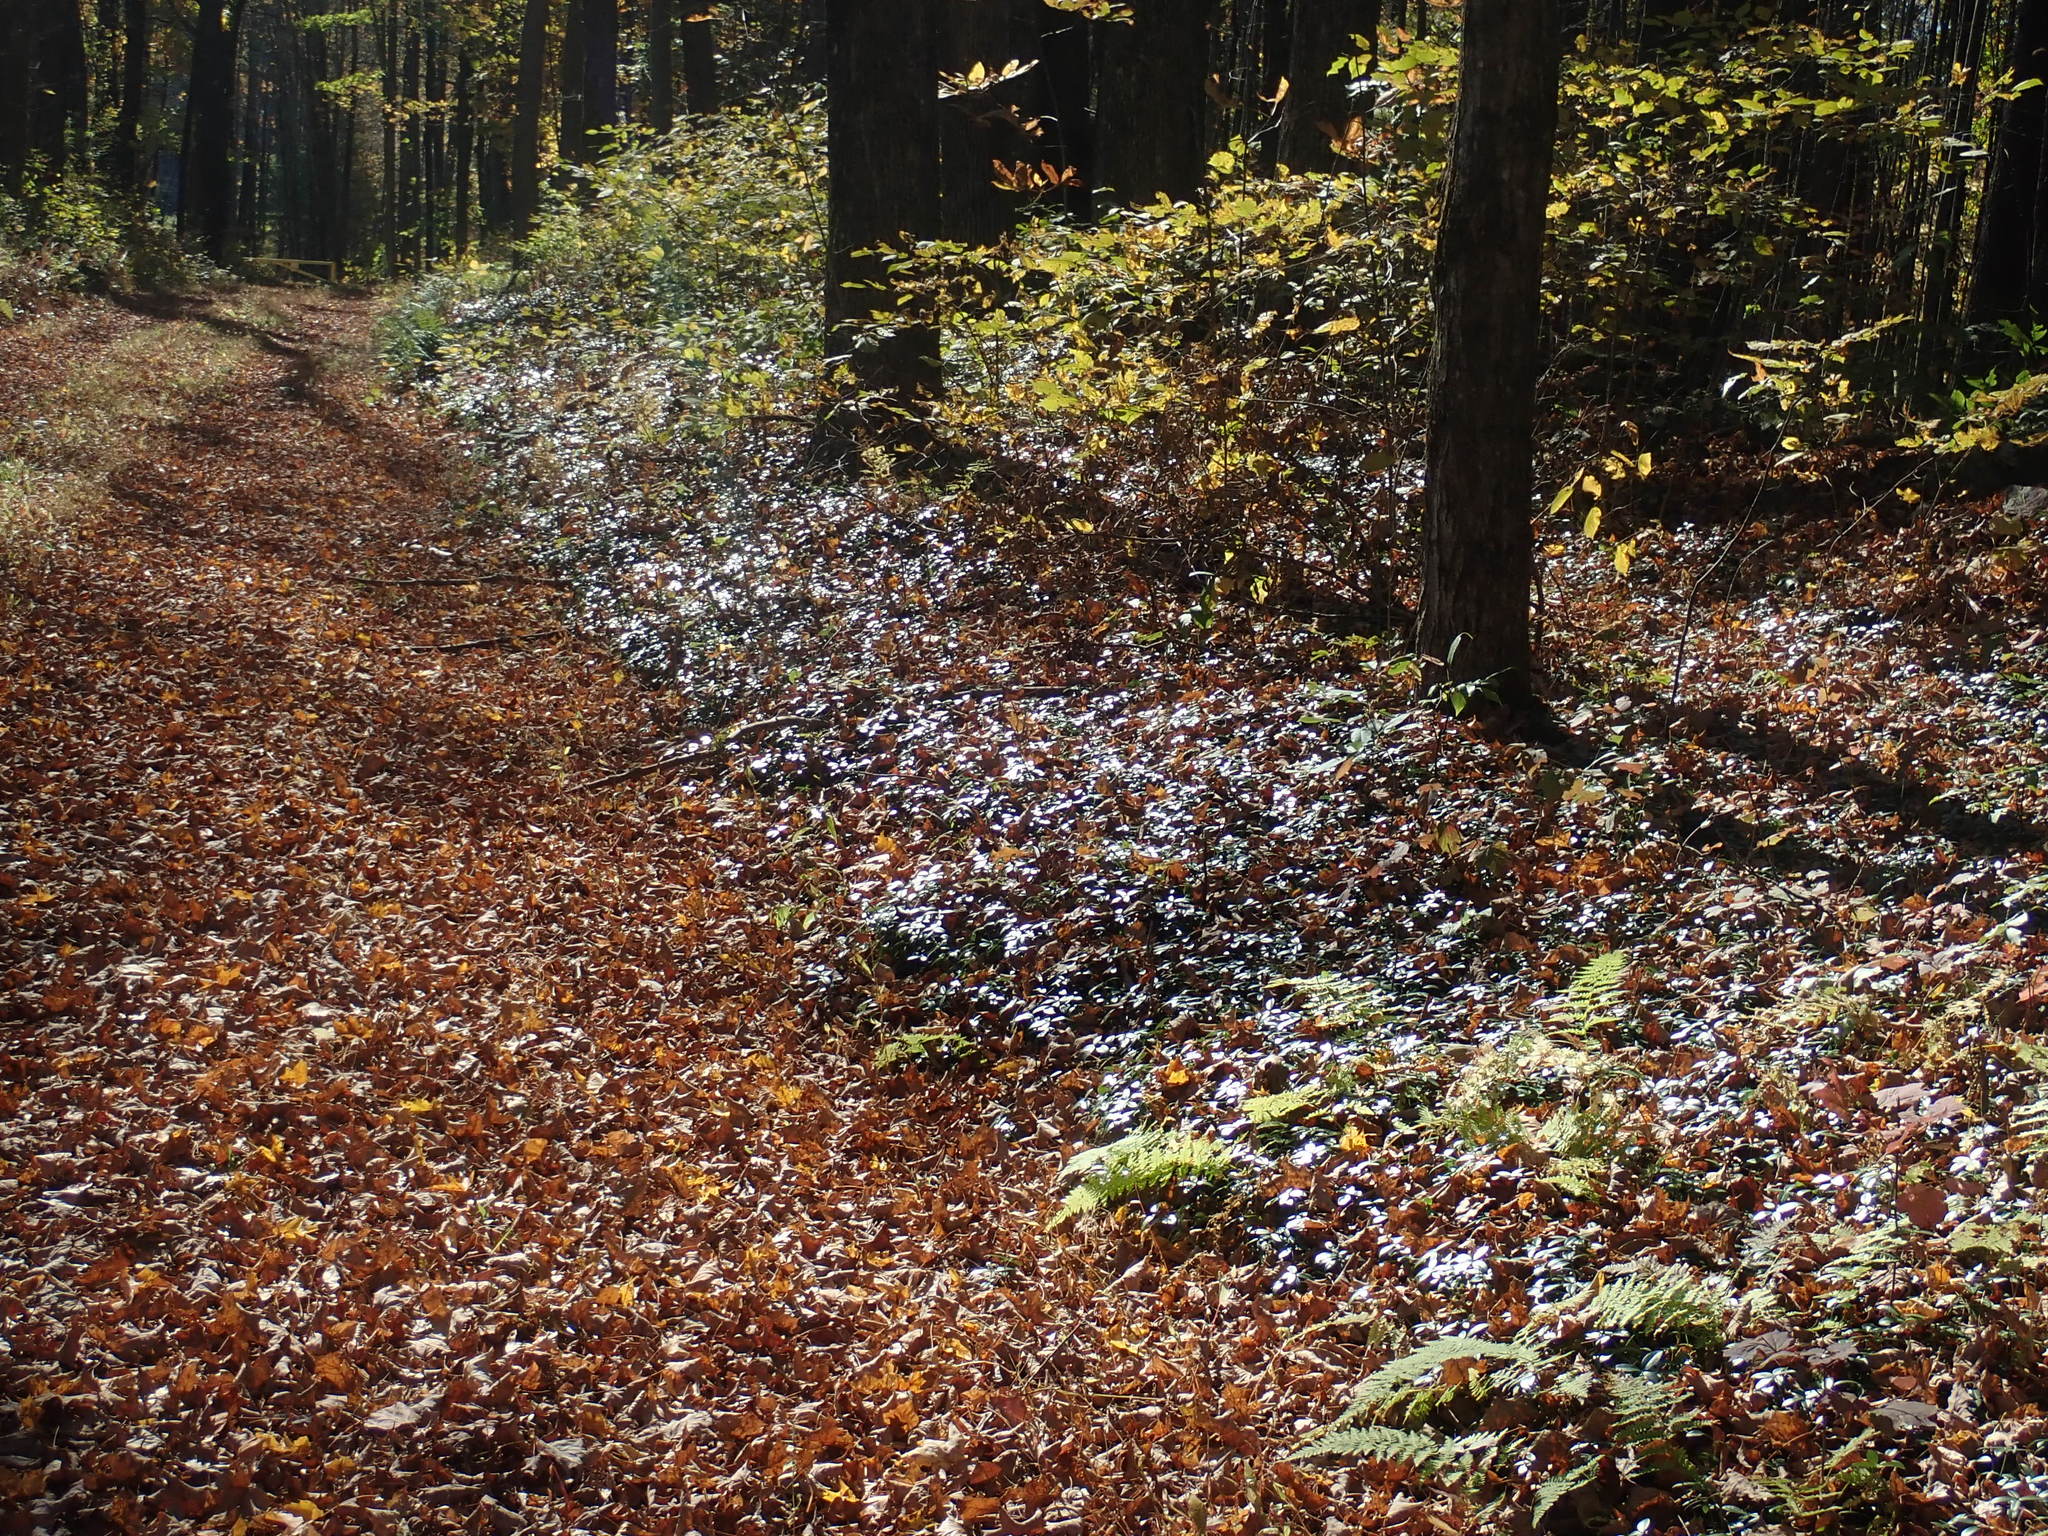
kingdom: Plantae
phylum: Tracheophyta
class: Magnoliopsida
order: Gentianales
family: Apocynaceae
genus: Vinca
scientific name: Vinca minor
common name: Lesser periwinkle
